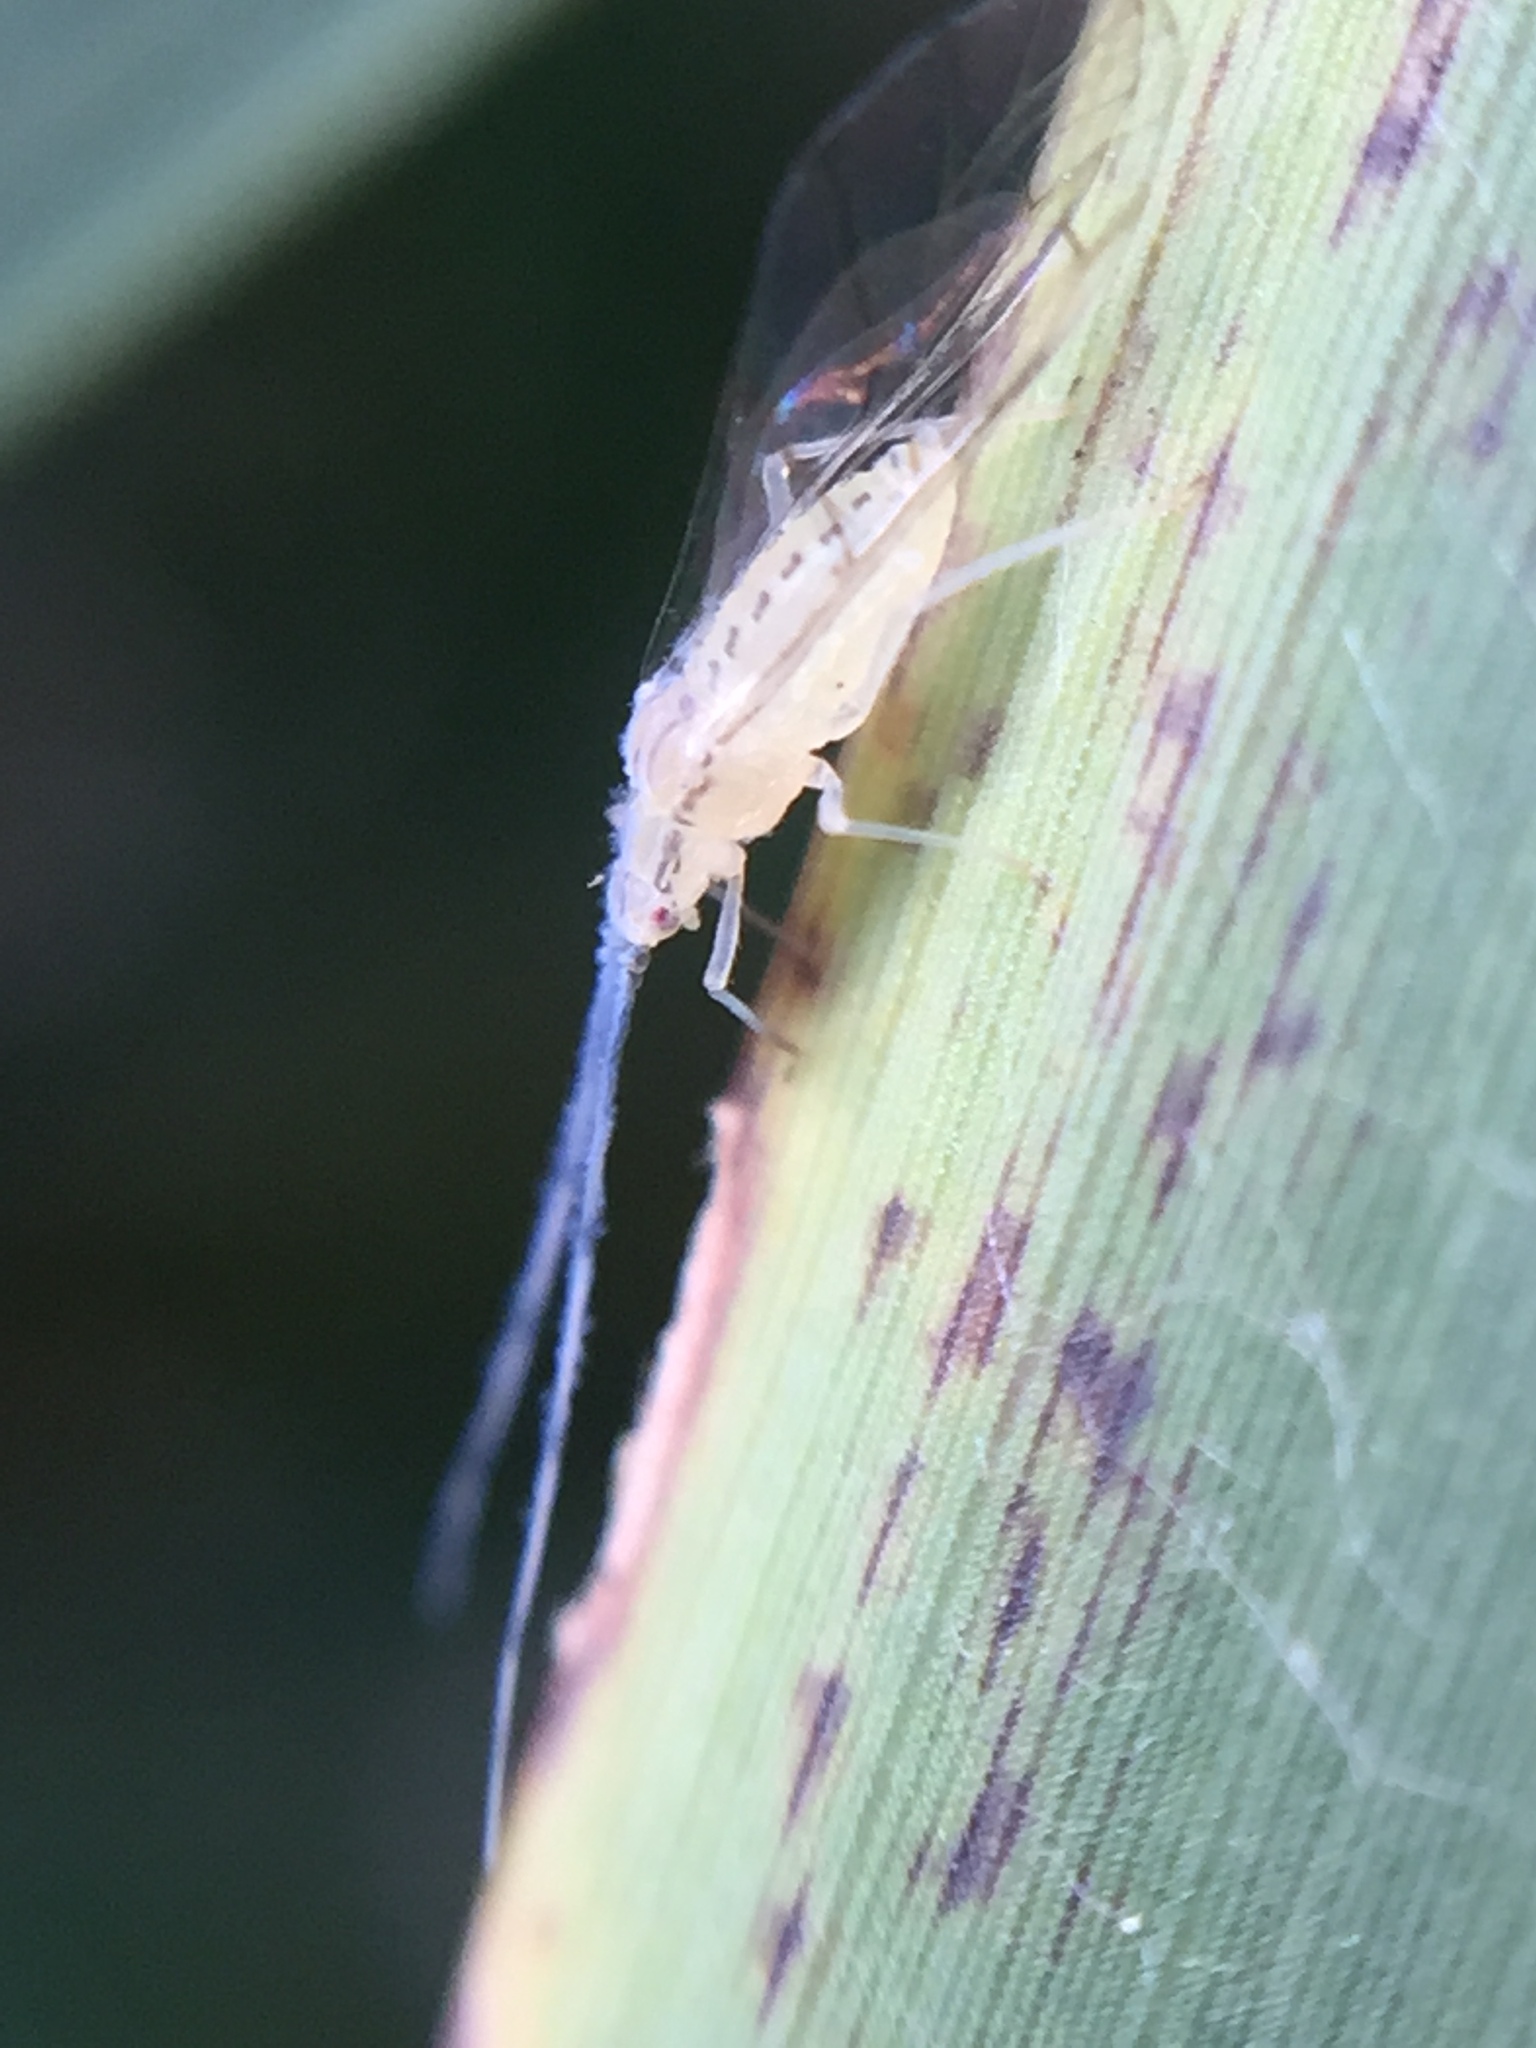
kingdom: Animalia
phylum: Arthropoda
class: Insecta
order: Hemiptera
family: Aphididae
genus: Takecallis
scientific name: Takecallis arundinariae
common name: Black-tailed bamboo aphid
